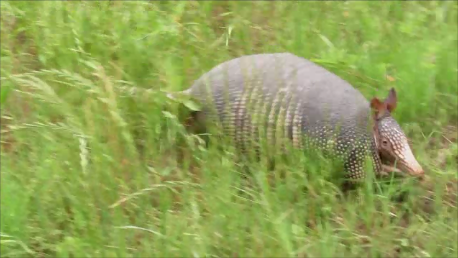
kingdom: Animalia
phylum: Chordata
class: Mammalia
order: Cingulata
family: Dasypodidae
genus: Dasypus
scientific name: Dasypus novemcinctus
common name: Nine-banded armadillo
